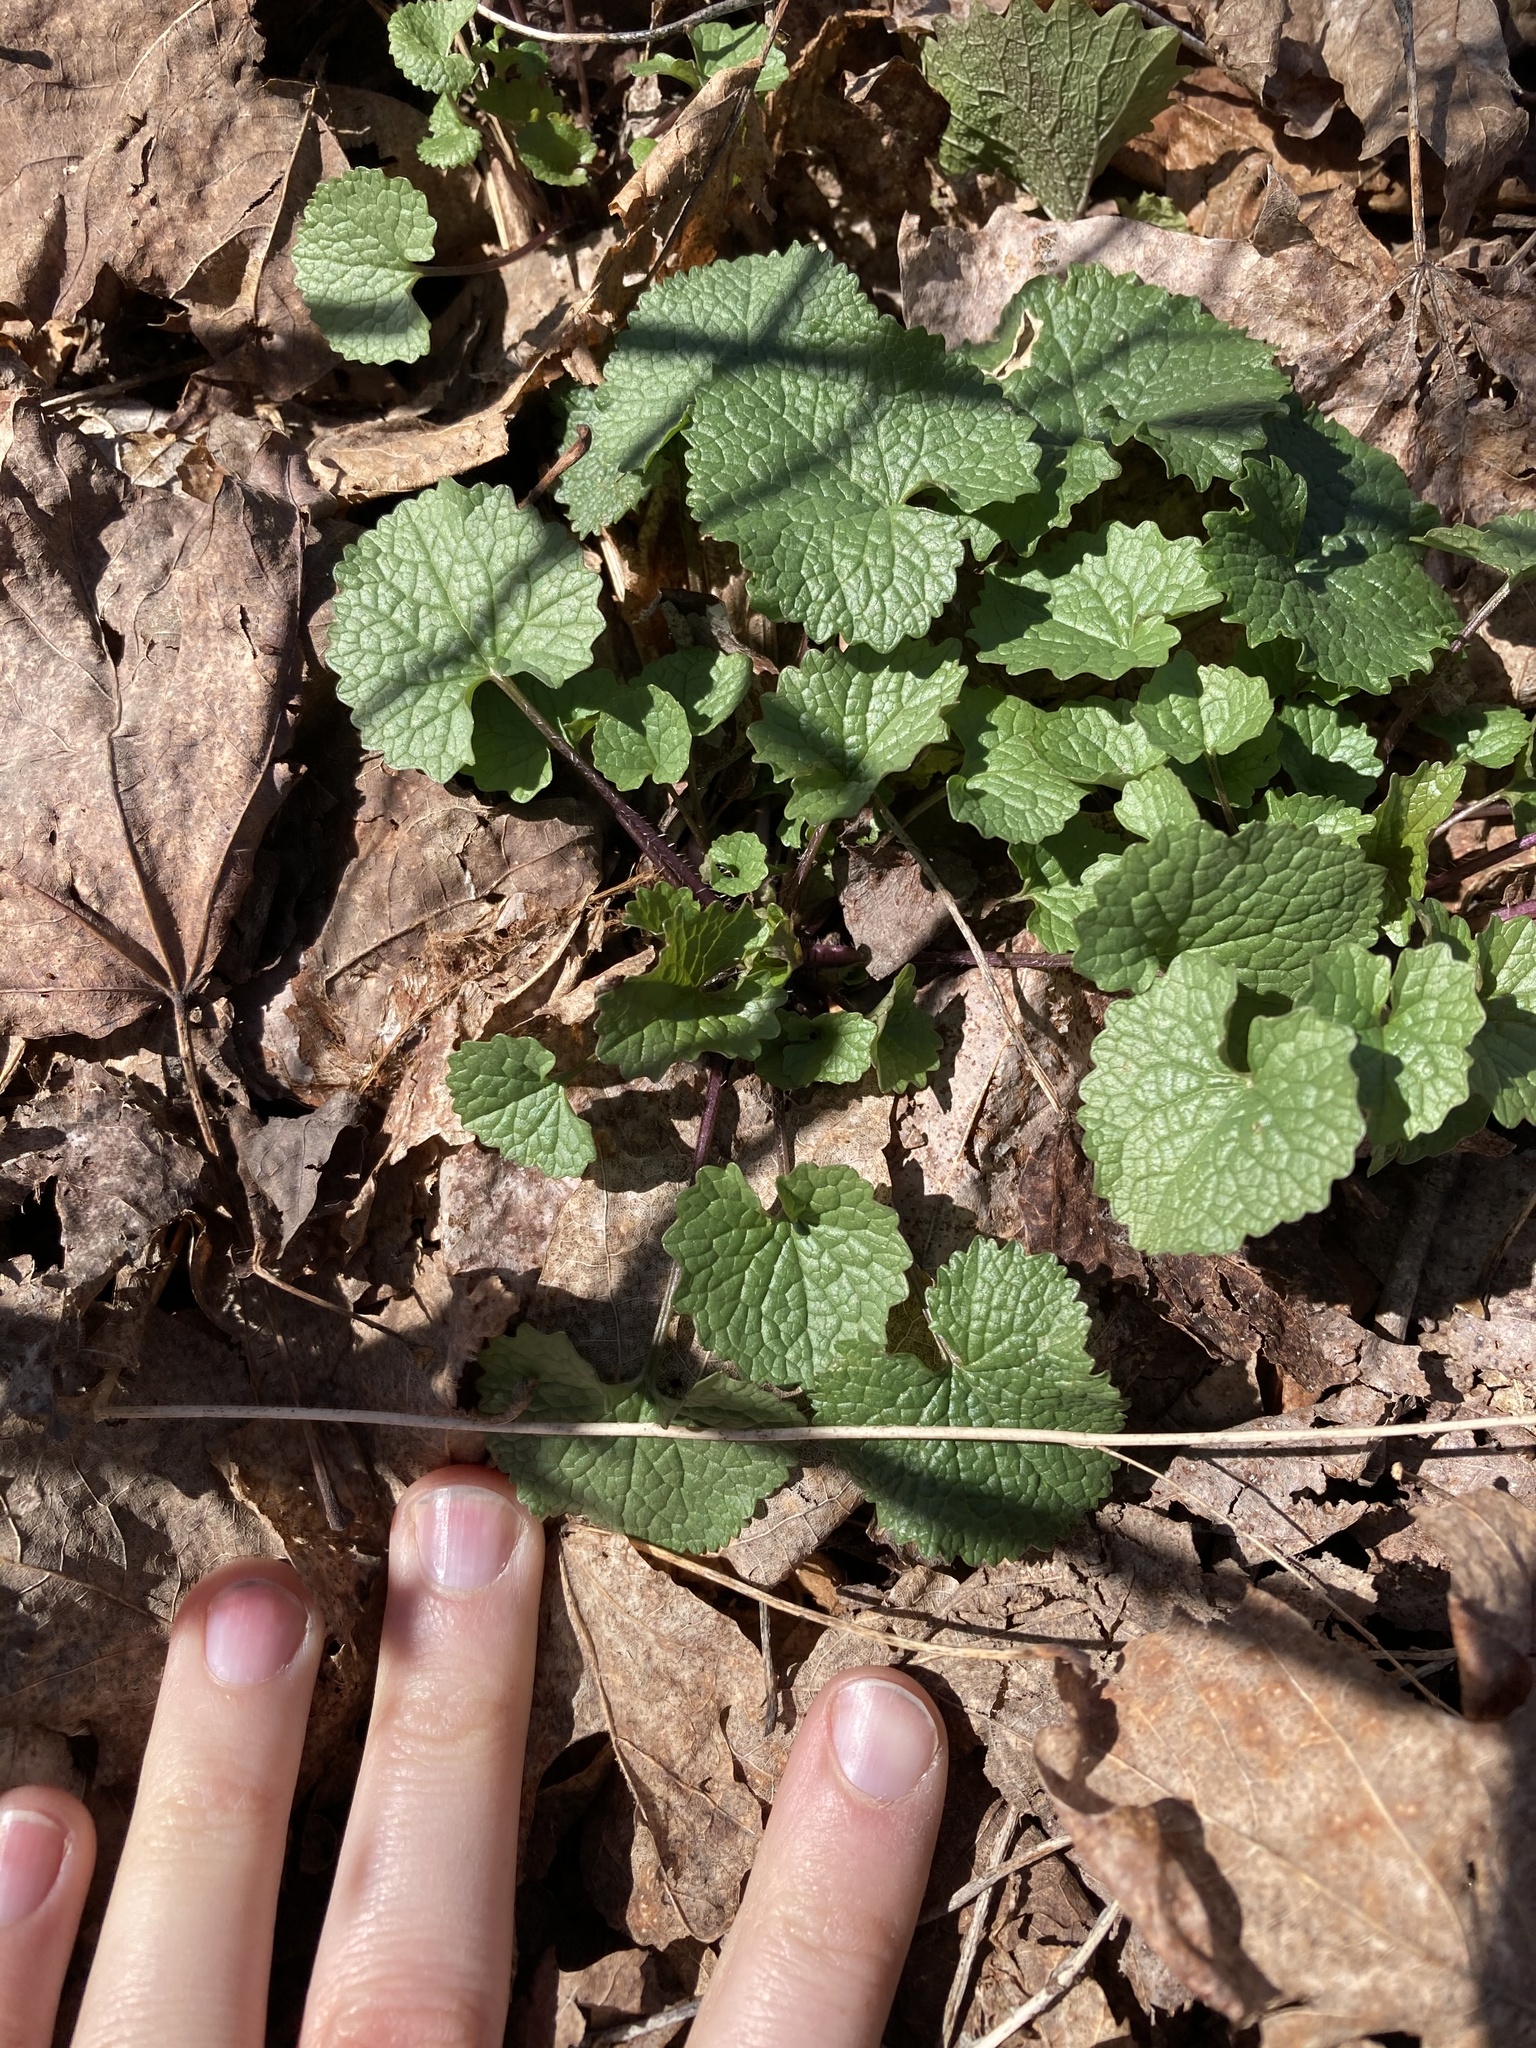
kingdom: Plantae
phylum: Tracheophyta
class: Magnoliopsida
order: Brassicales
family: Brassicaceae
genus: Alliaria
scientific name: Alliaria petiolata
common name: Garlic mustard
